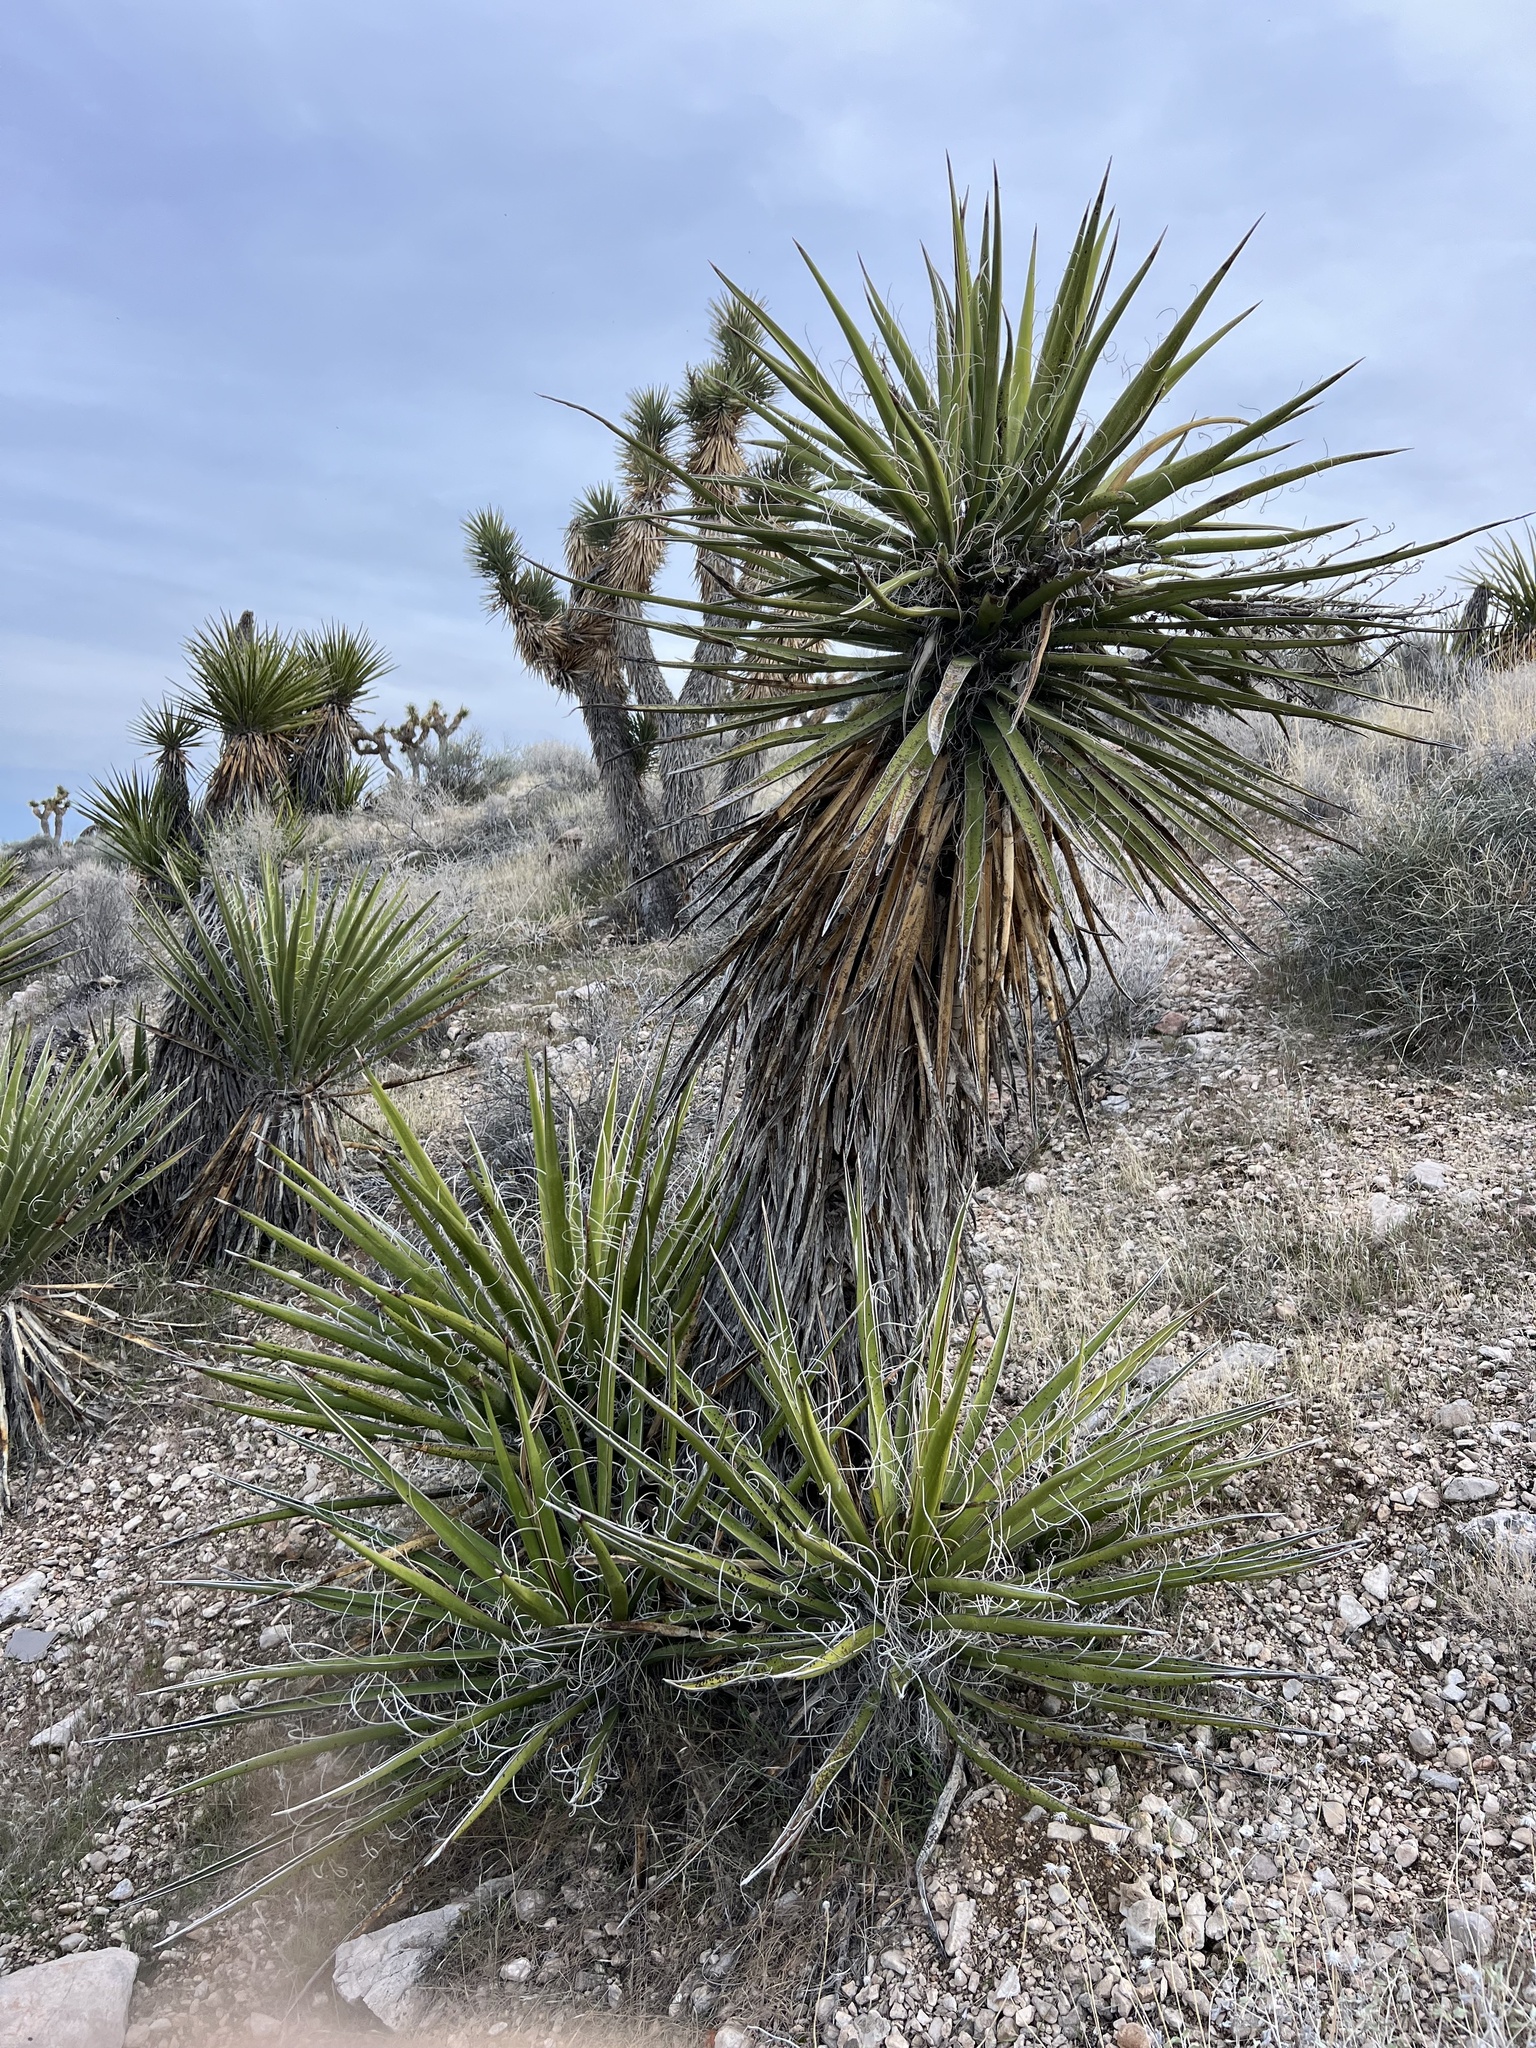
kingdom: Plantae
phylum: Tracheophyta
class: Liliopsida
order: Asparagales
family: Asparagaceae
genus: Yucca
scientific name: Yucca schidigera
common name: Mojave yucca
